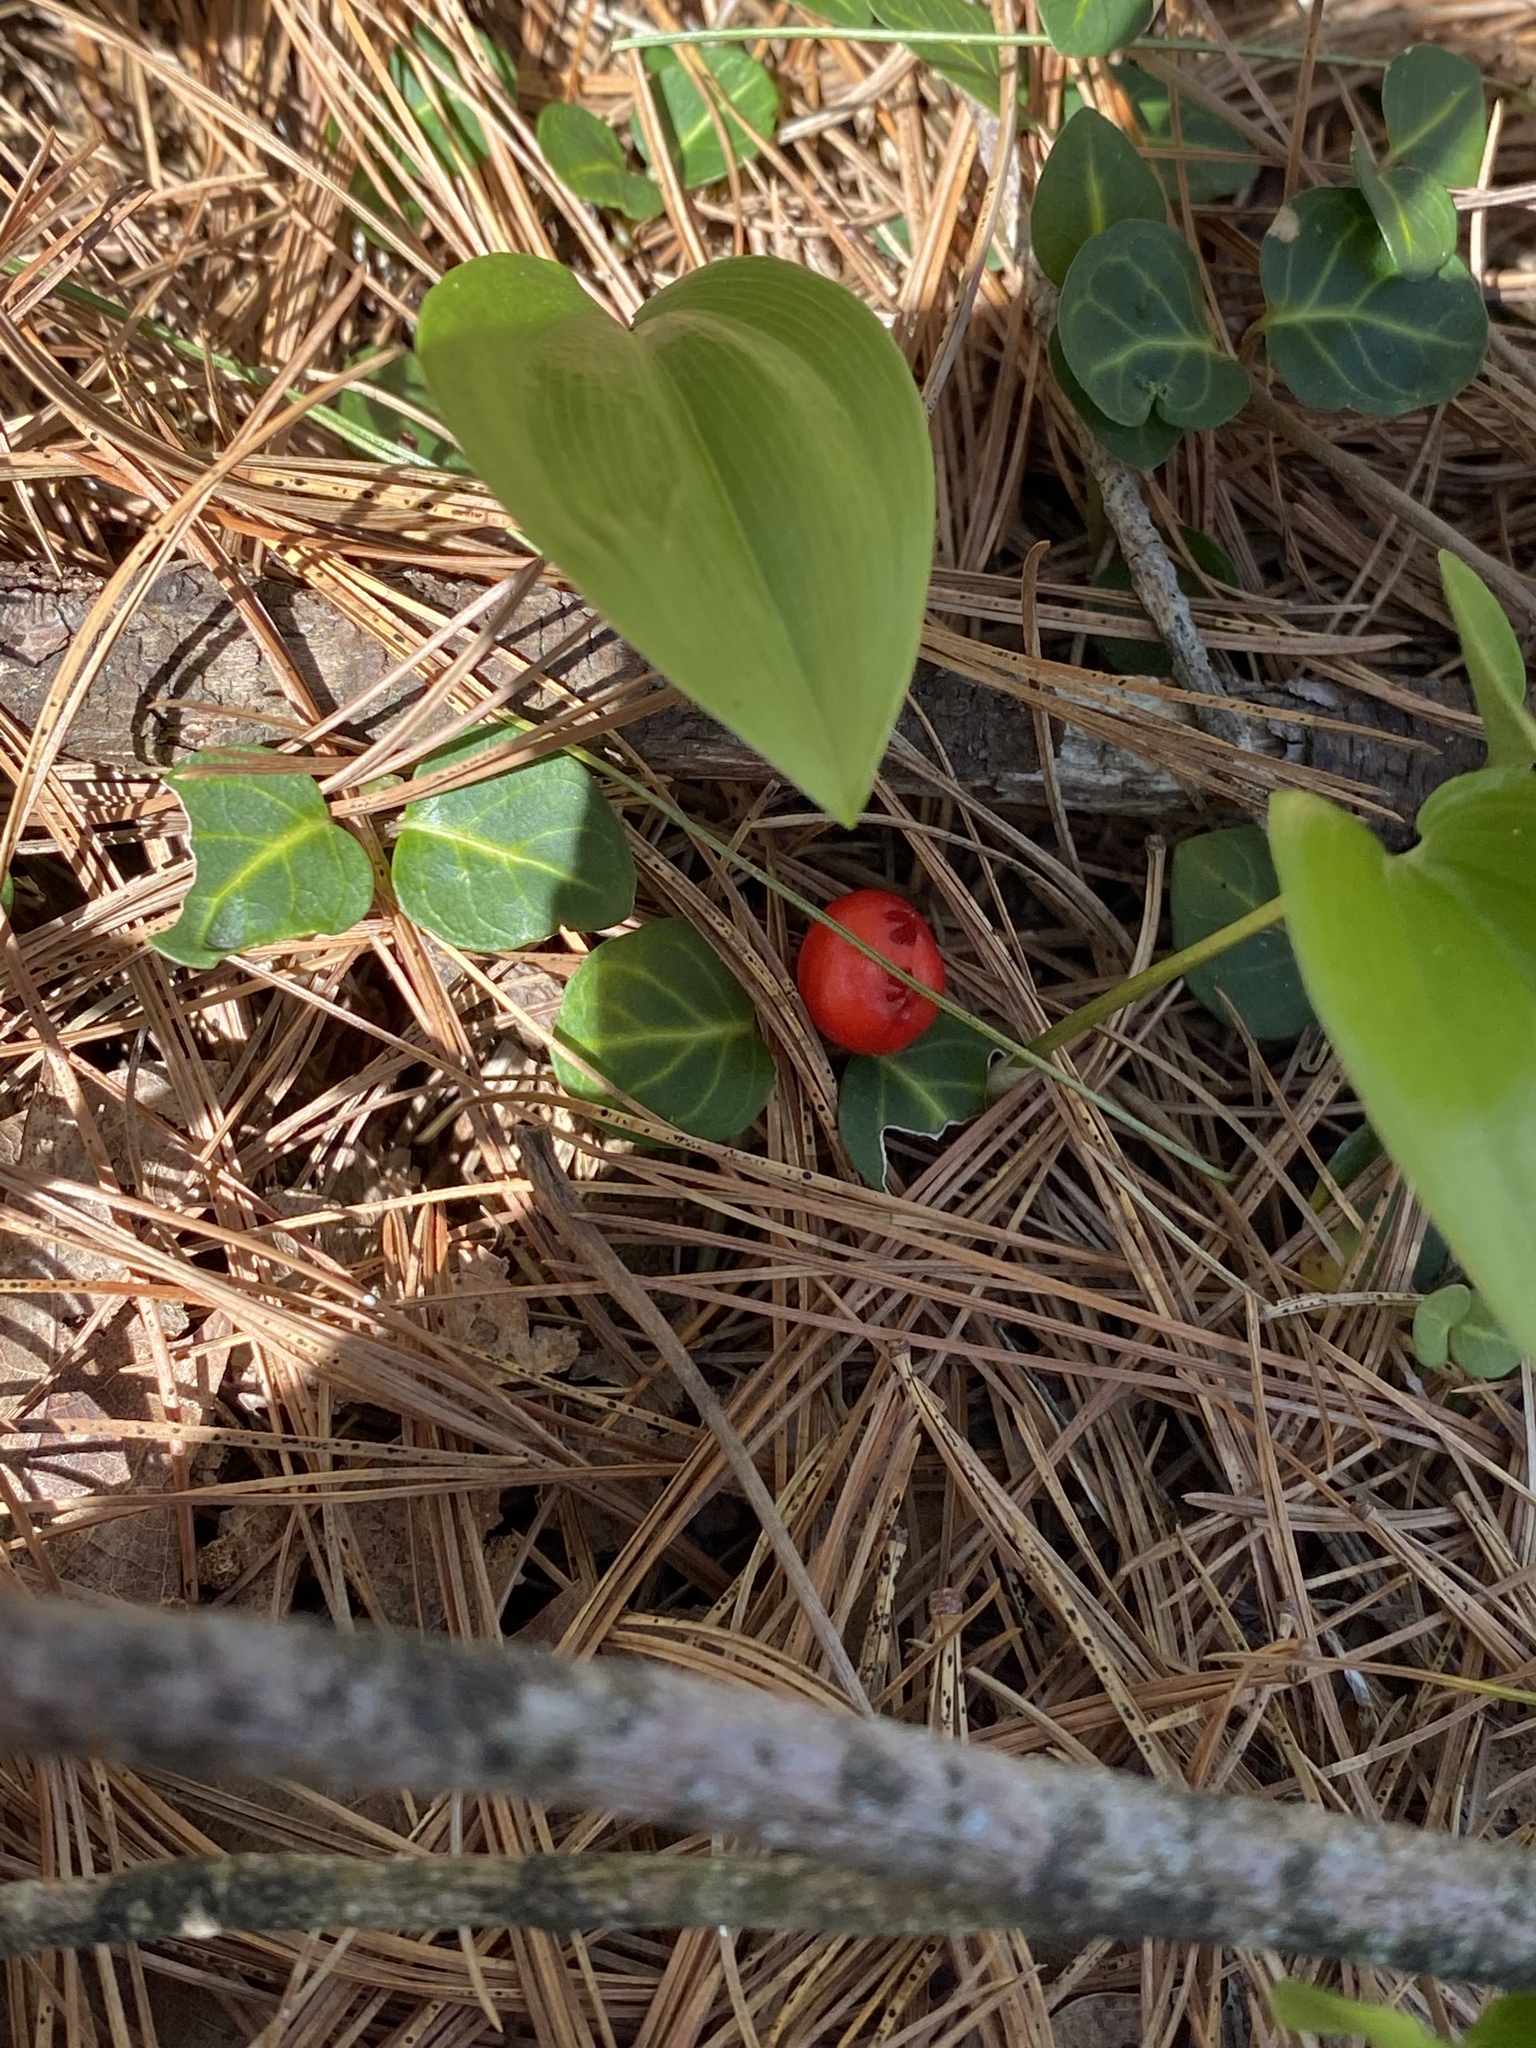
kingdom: Plantae
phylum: Tracheophyta
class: Magnoliopsida
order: Gentianales
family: Rubiaceae
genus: Mitchella
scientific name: Mitchella repens
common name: Partridge-berry
